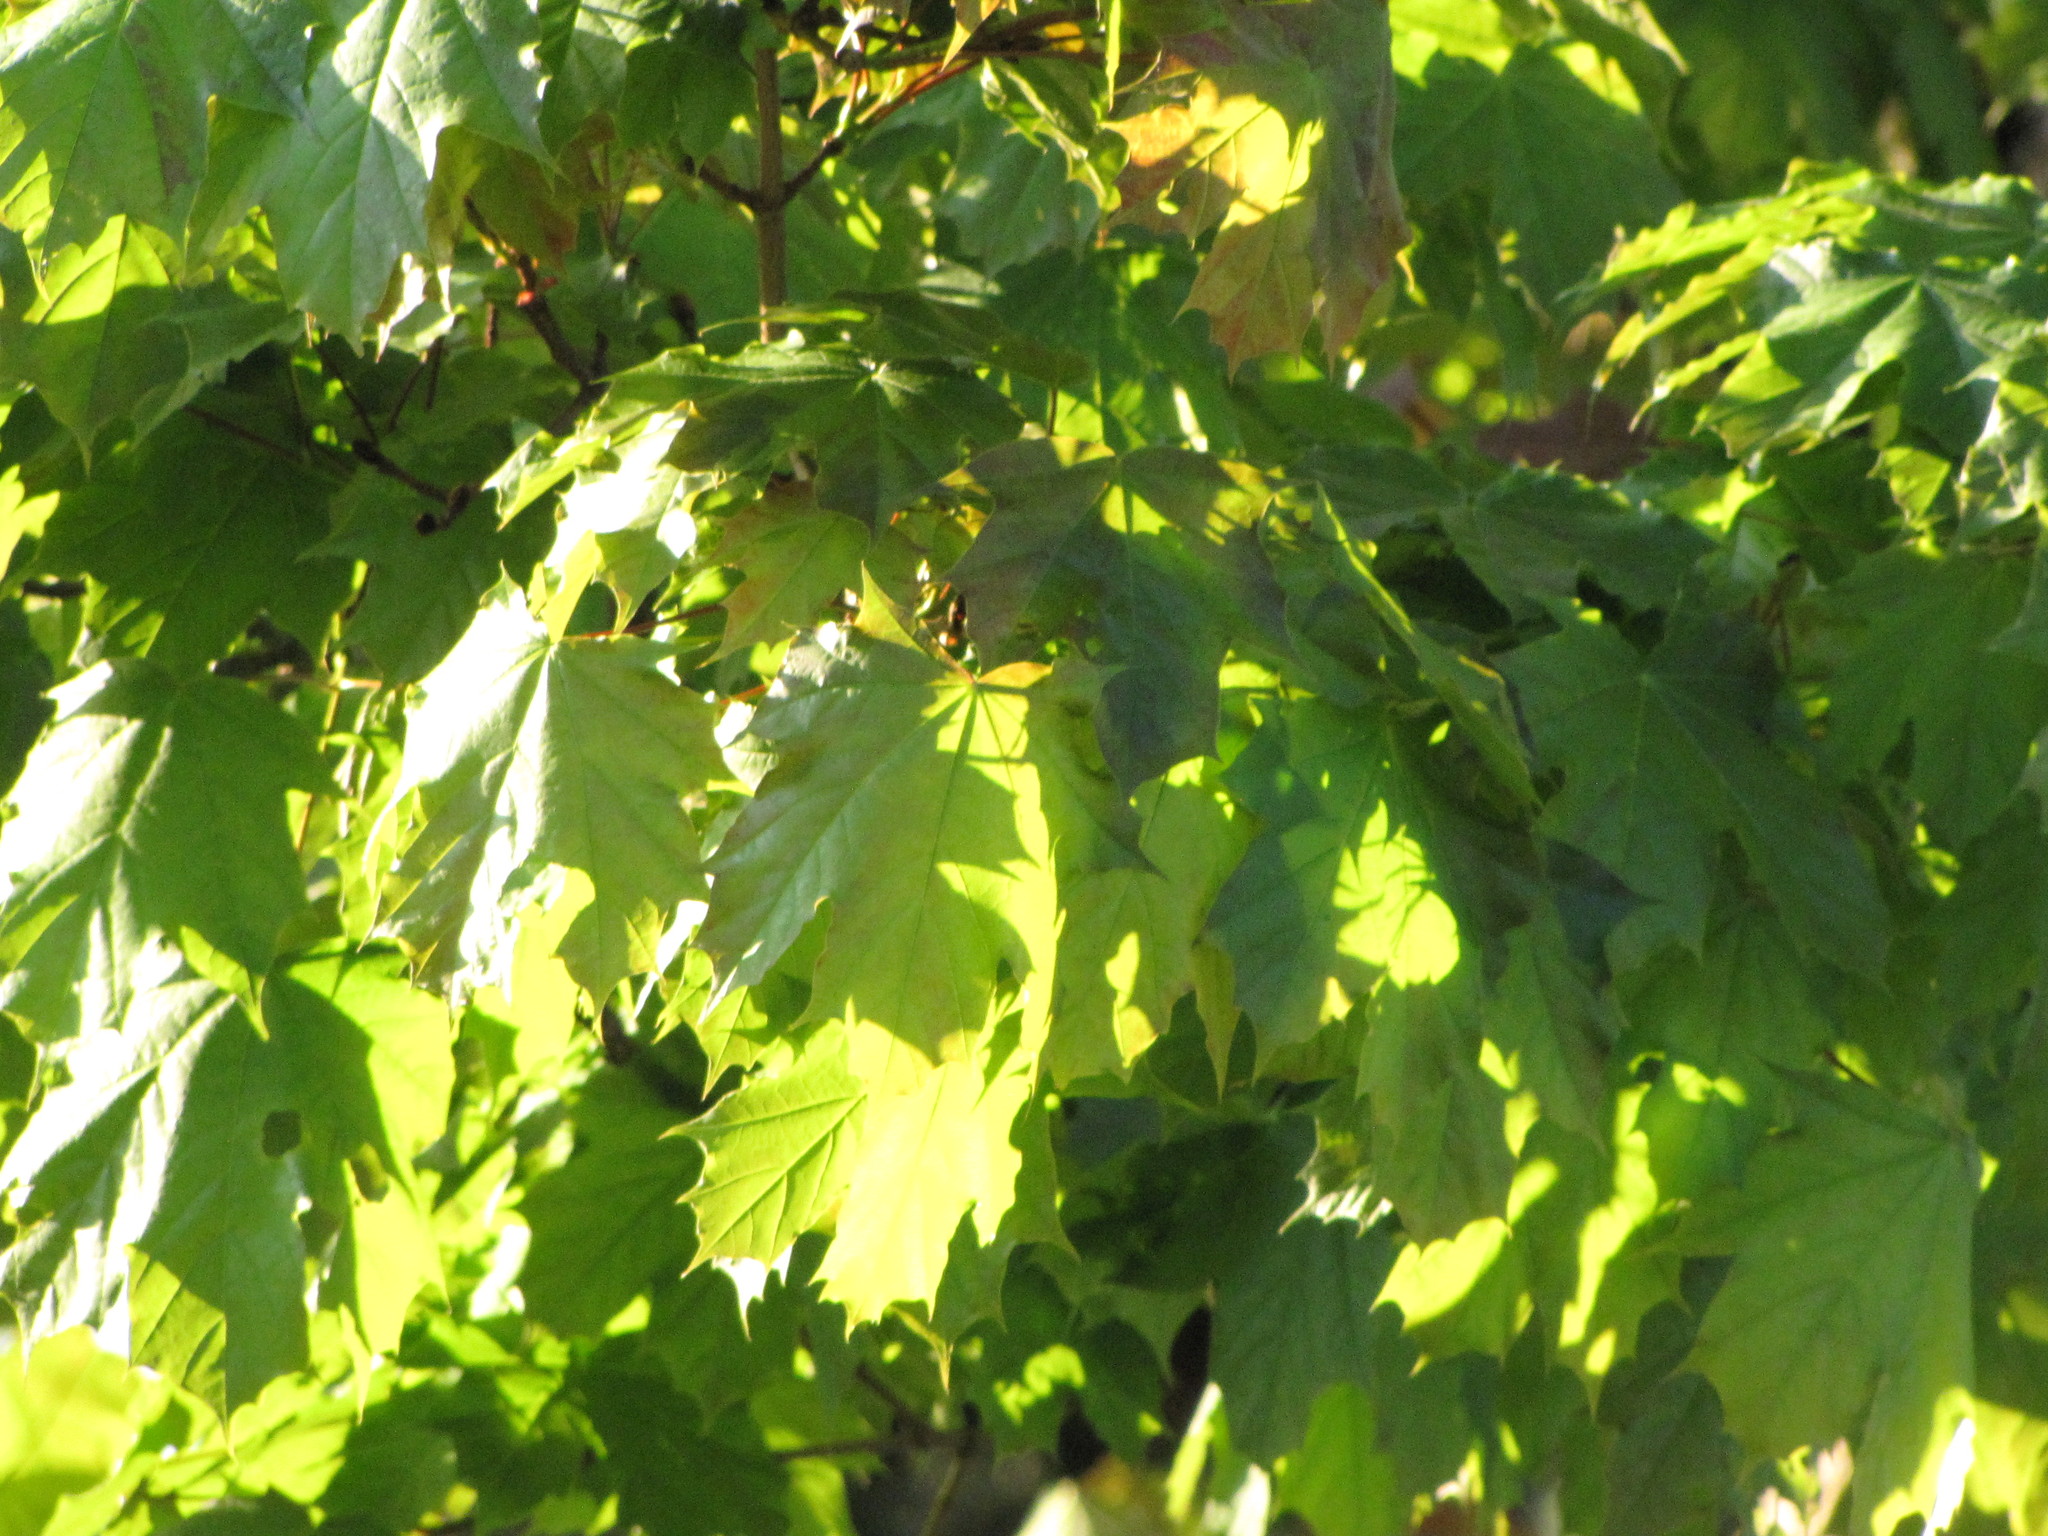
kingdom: Plantae
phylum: Tracheophyta
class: Magnoliopsida
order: Sapindales
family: Sapindaceae
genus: Acer
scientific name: Acer platanoides
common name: Norway maple
